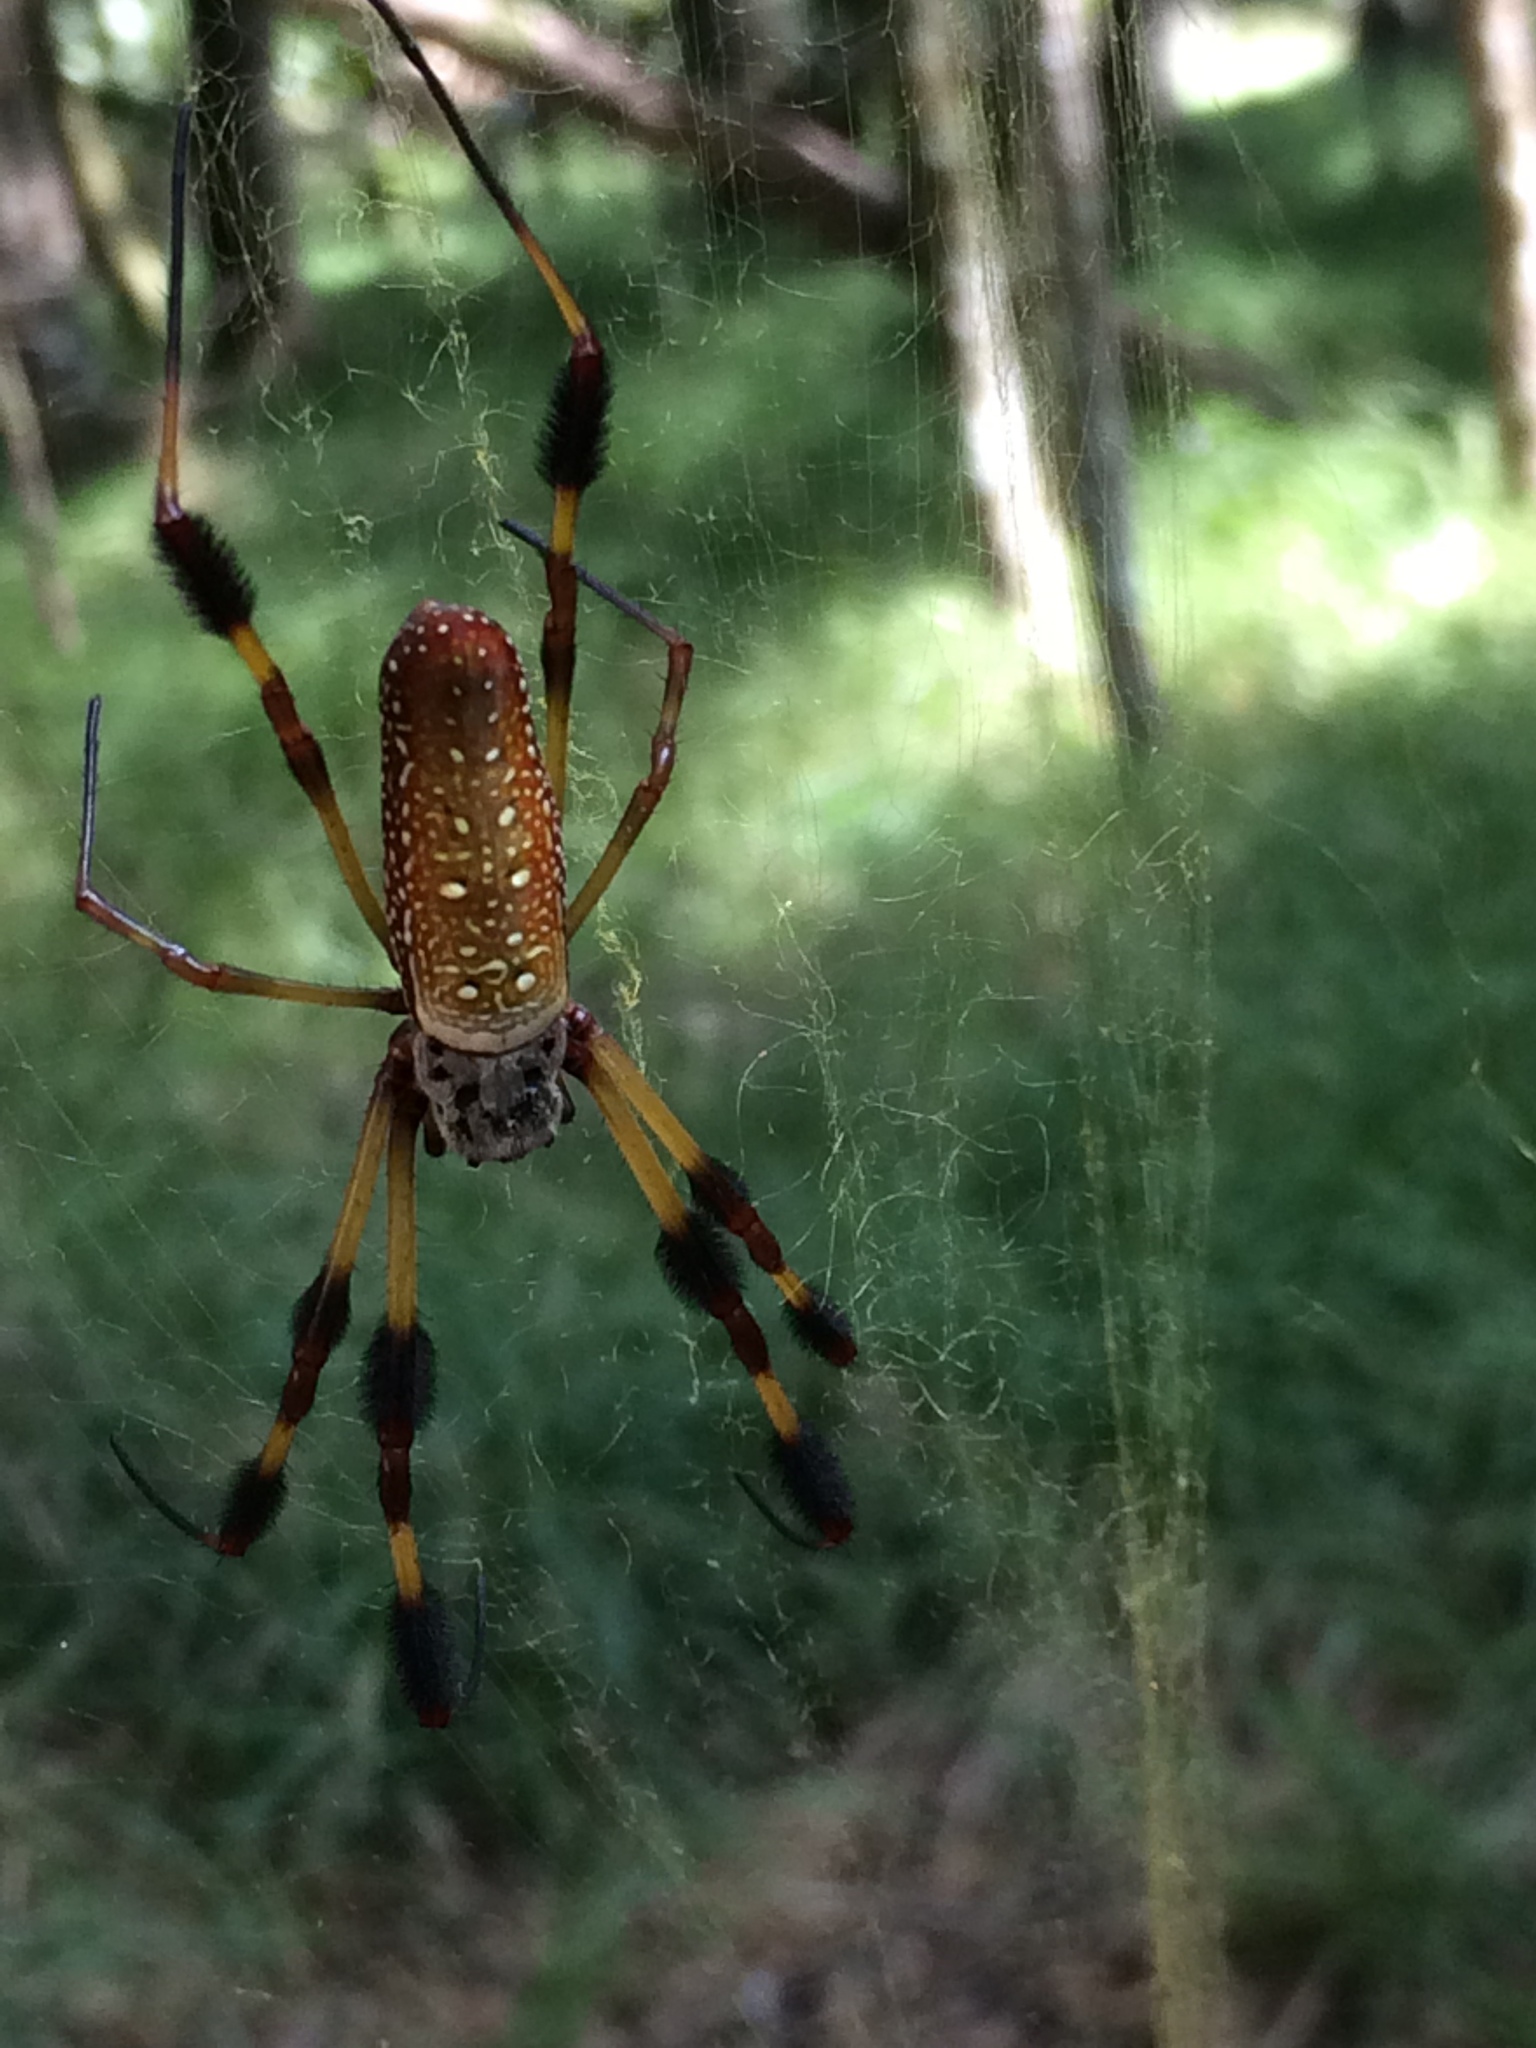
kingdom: Animalia
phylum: Arthropoda
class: Arachnida
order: Araneae
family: Araneidae
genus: Trichonephila
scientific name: Trichonephila clavipes
